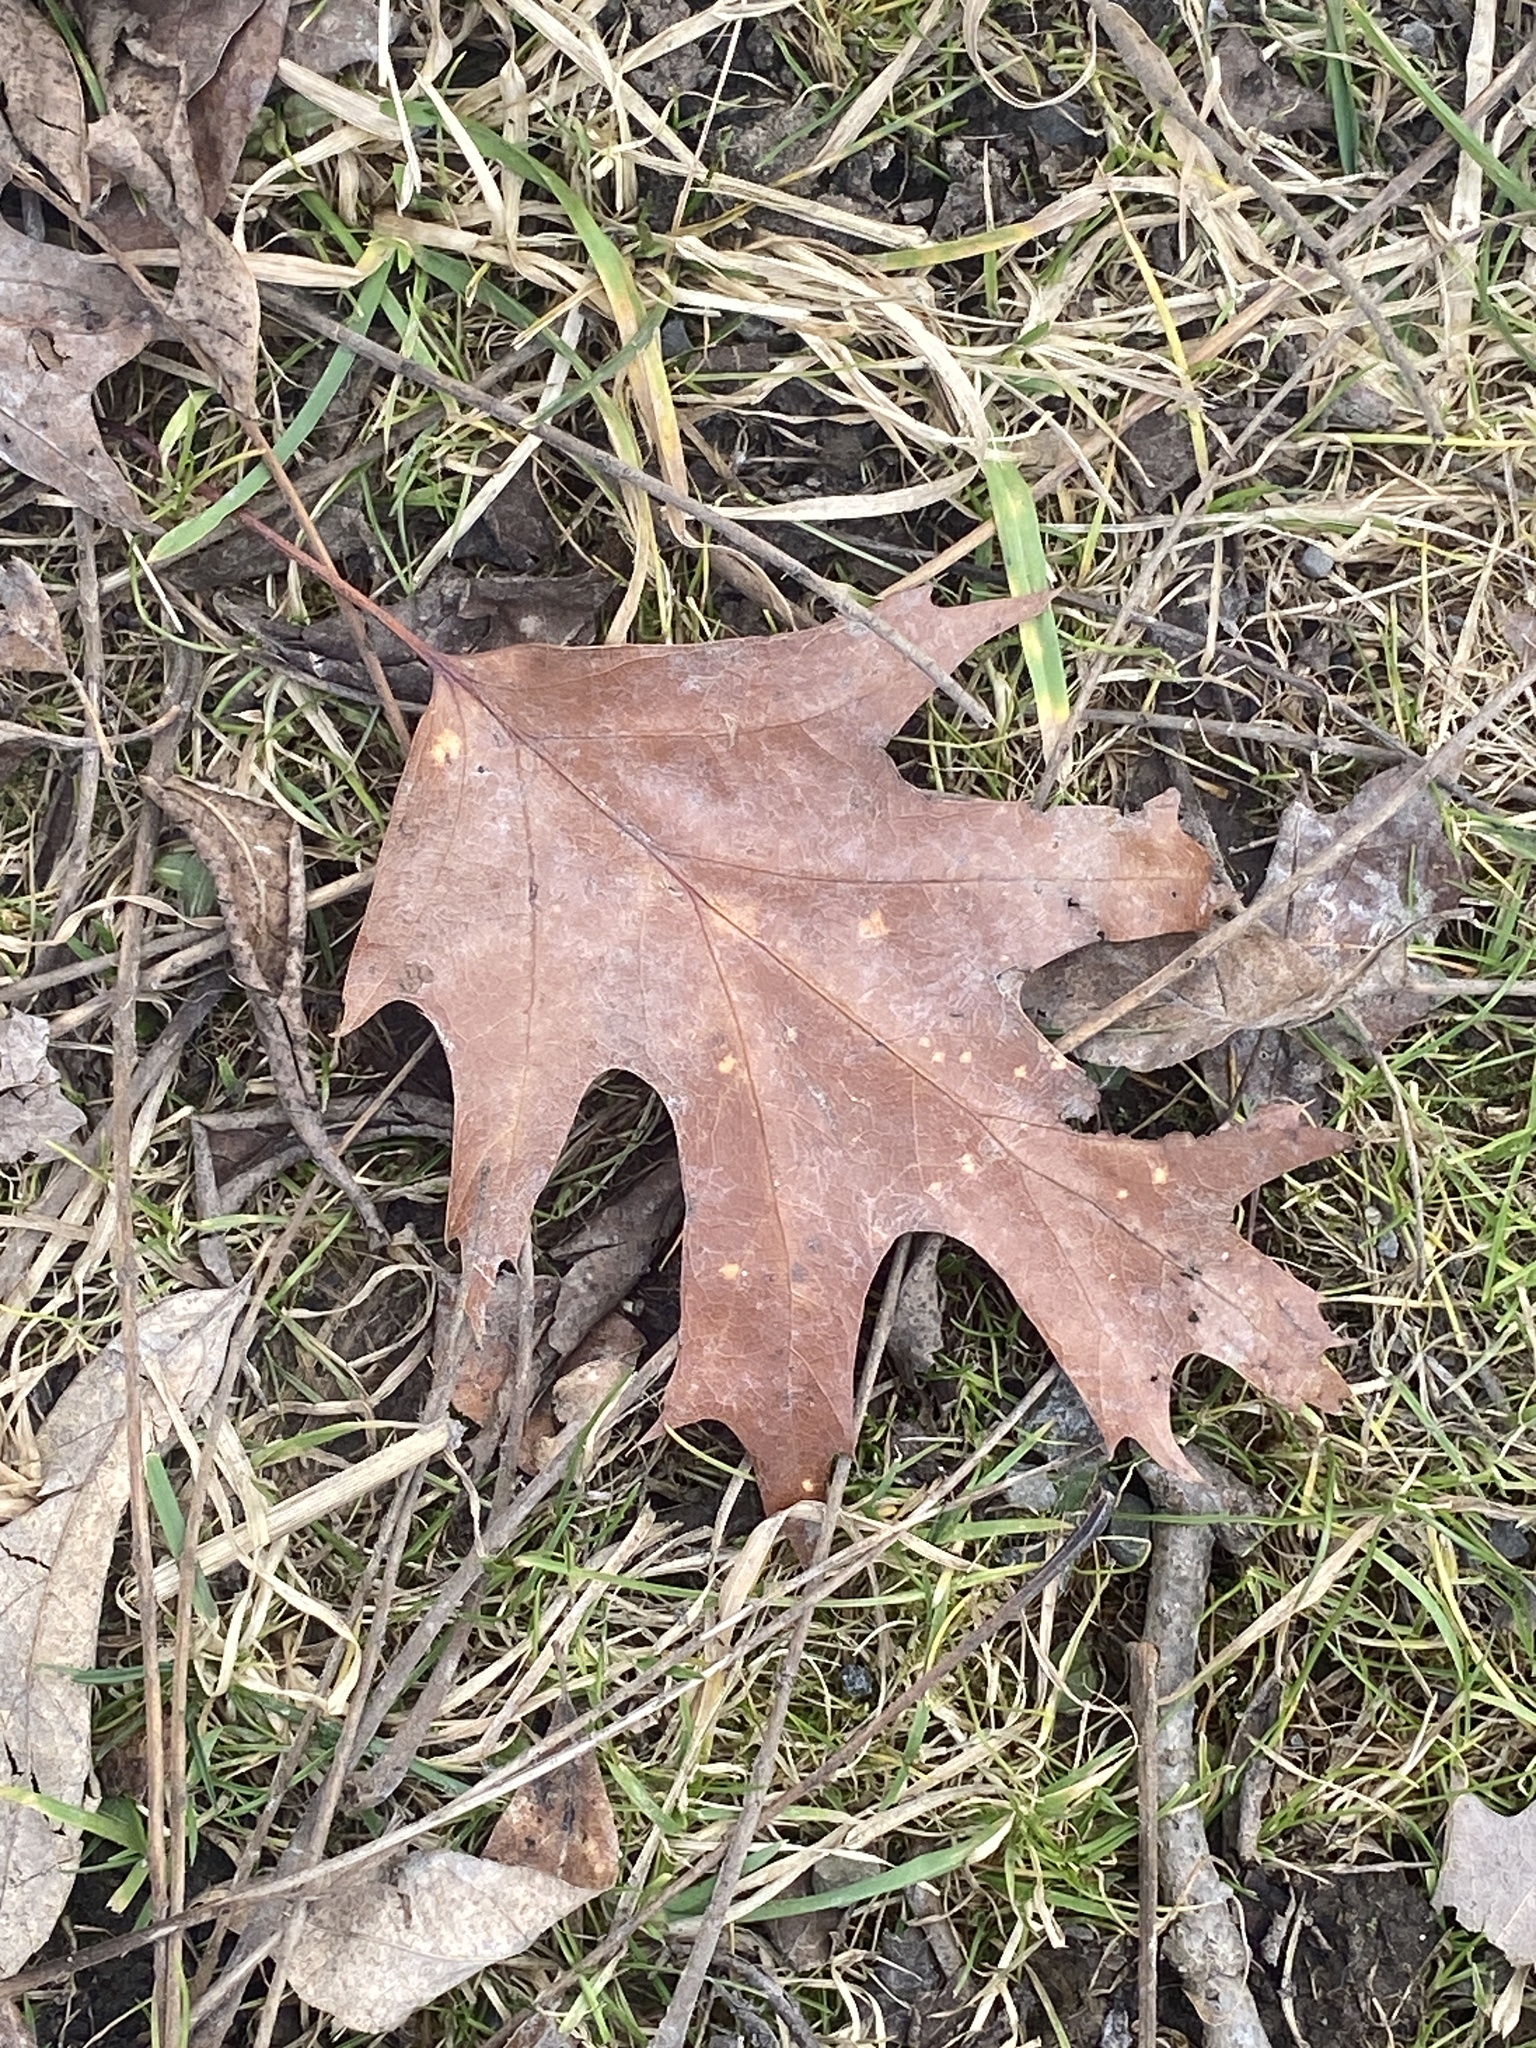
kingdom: Plantae
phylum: Tracheophyta
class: Magnoliopsida
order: Fagales
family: Fagaceae
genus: Quercus
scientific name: Quercus rubra
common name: Red oak
